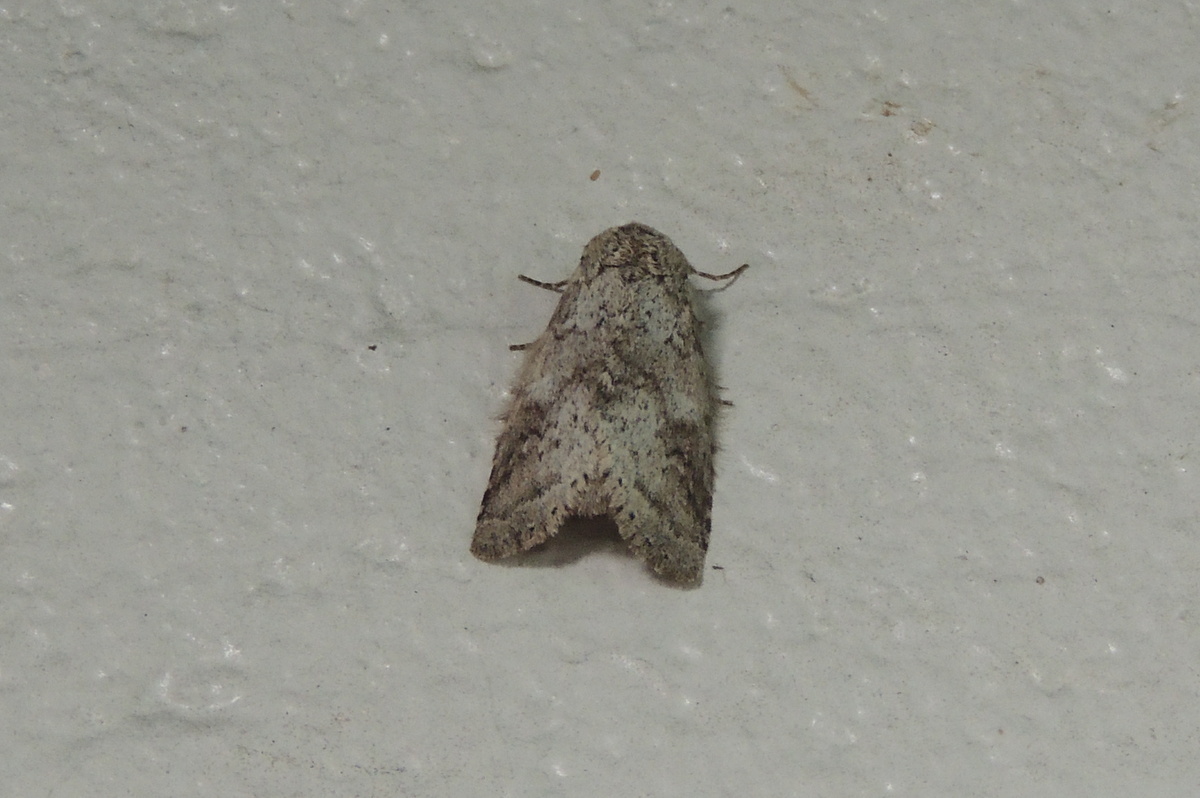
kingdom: Animalia
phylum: Arthropoda
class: Insecta
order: Lepidoptera
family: Notodontidae
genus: Lochmaeus
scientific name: Lochmaeus bilineata
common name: Double-lined prominent
